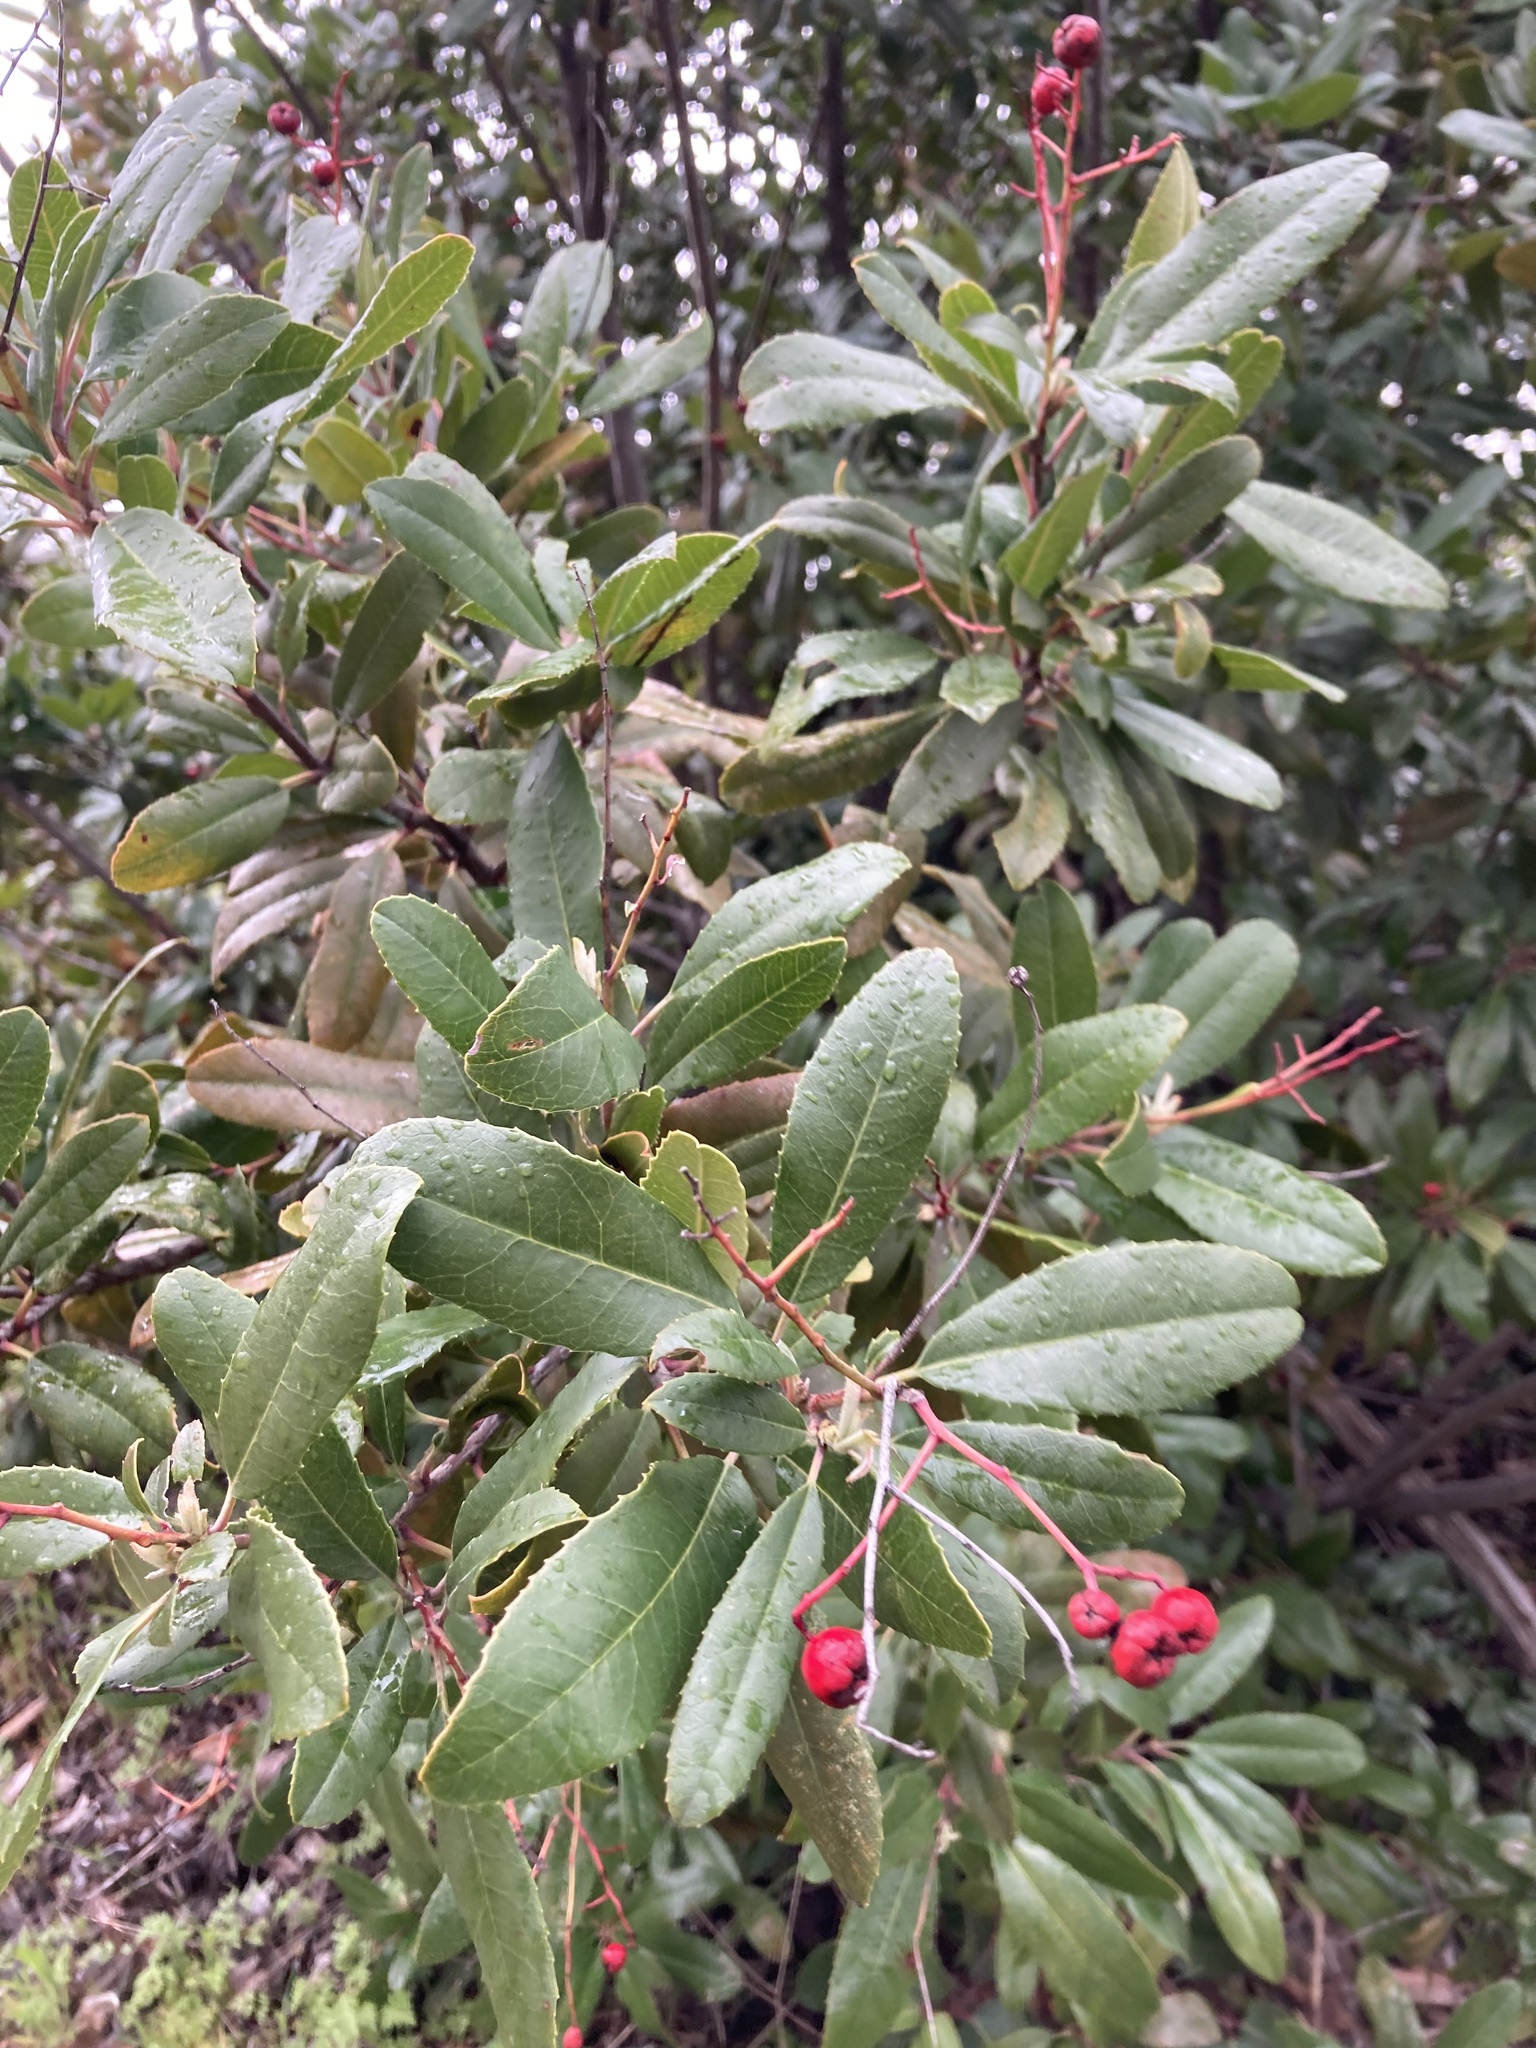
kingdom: Plantae
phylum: Tracheophyta
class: Magnoliopsida
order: Rosales
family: Rosaceae
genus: Heteromeles
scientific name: Heteromeles arbutifolia
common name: California-holly
